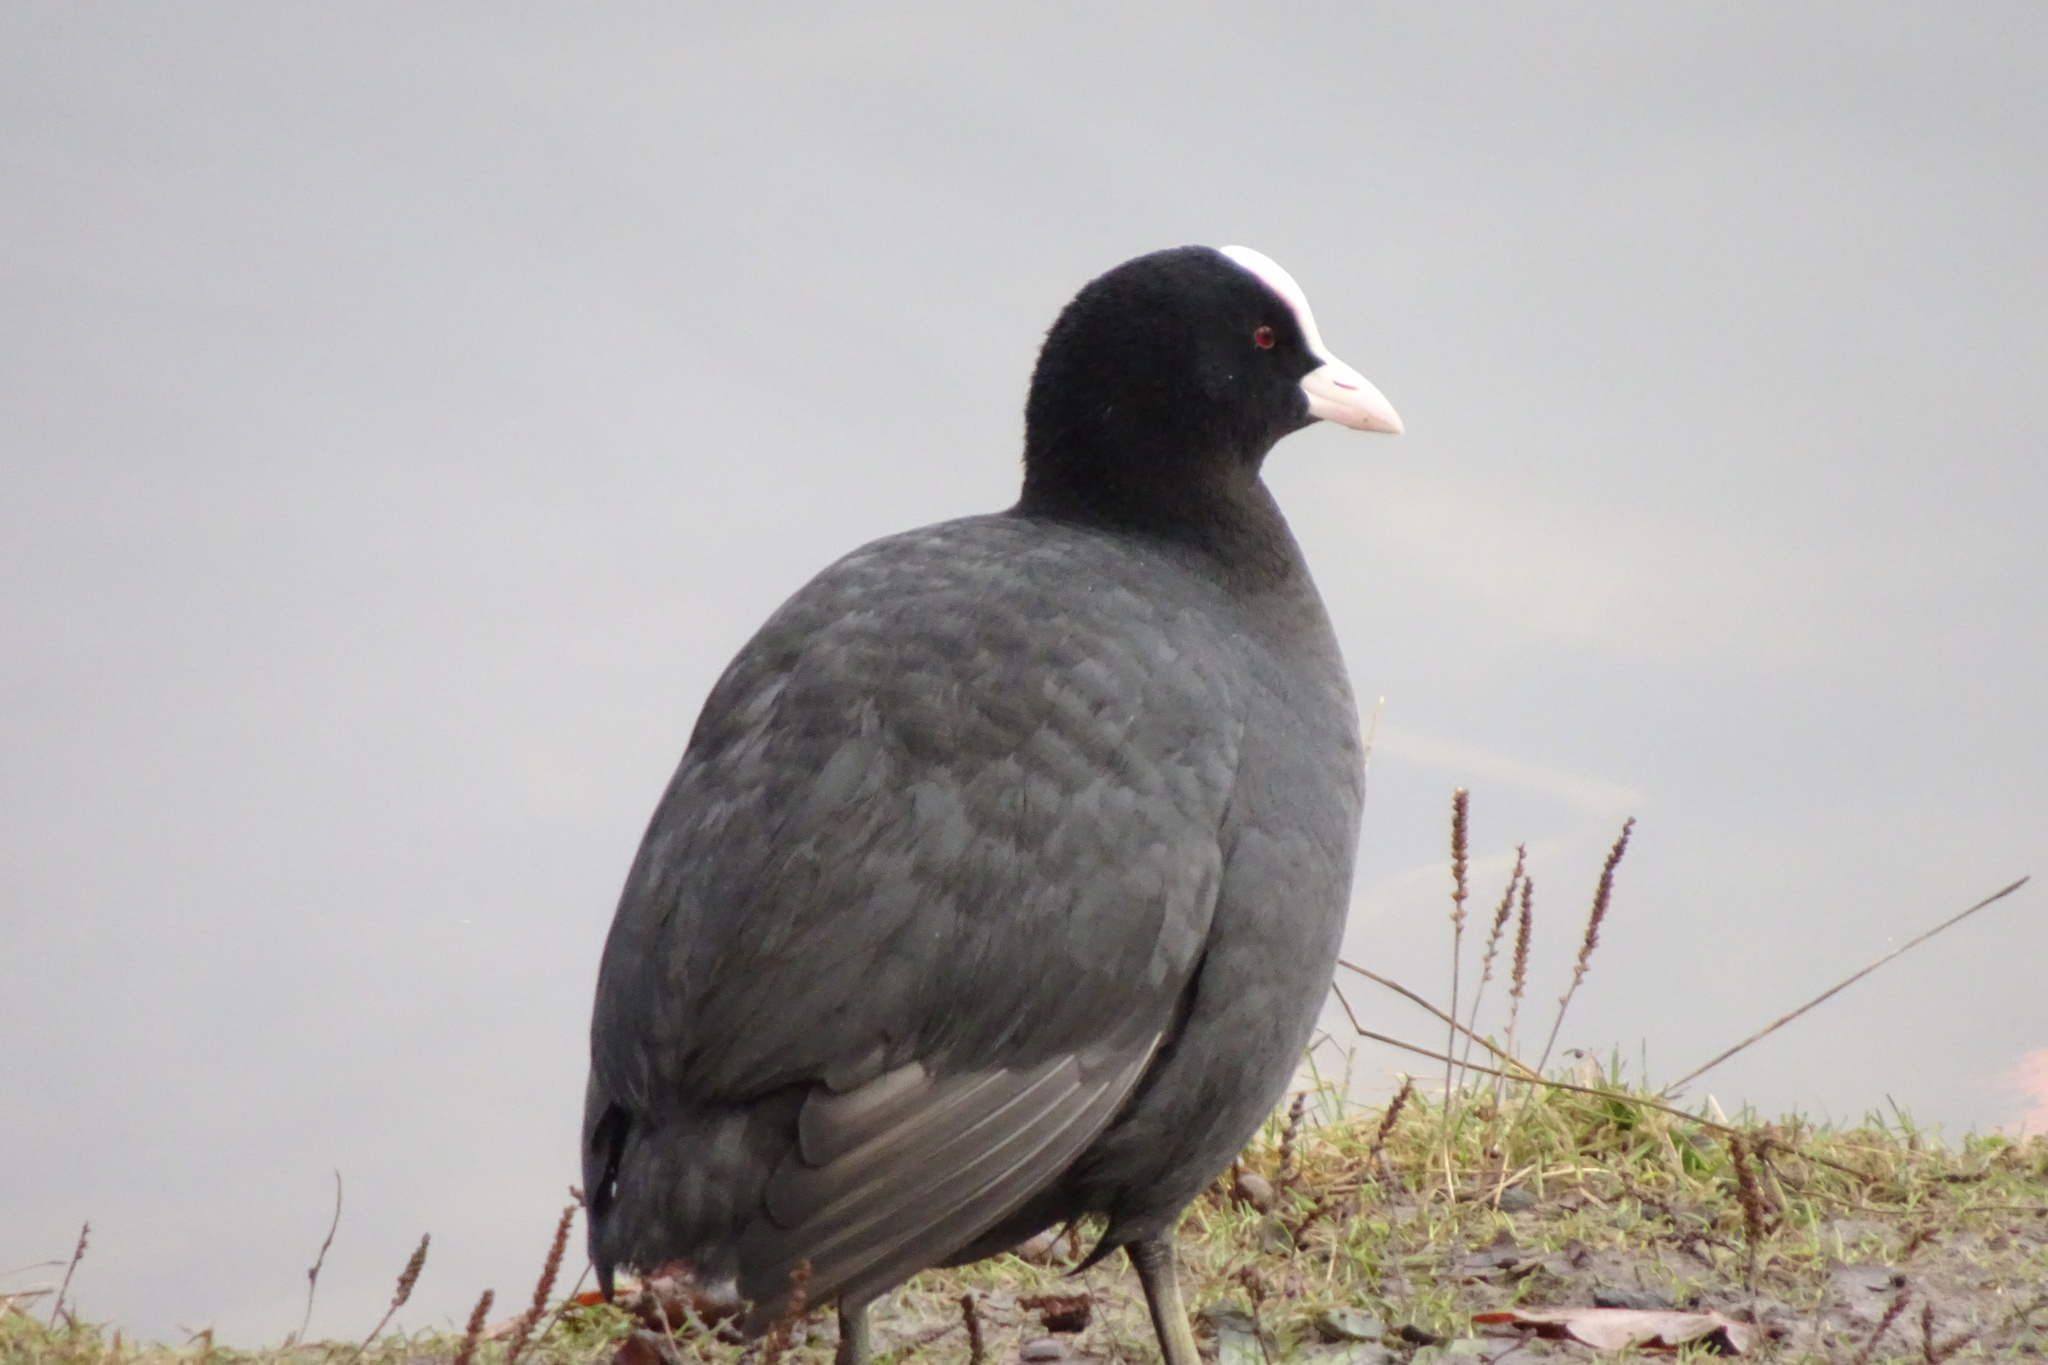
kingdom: Animalia
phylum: Chordata
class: Aves
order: Gruiformes
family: Rallidae
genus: Fulica
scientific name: Fulica atra
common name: Eurasian coot
